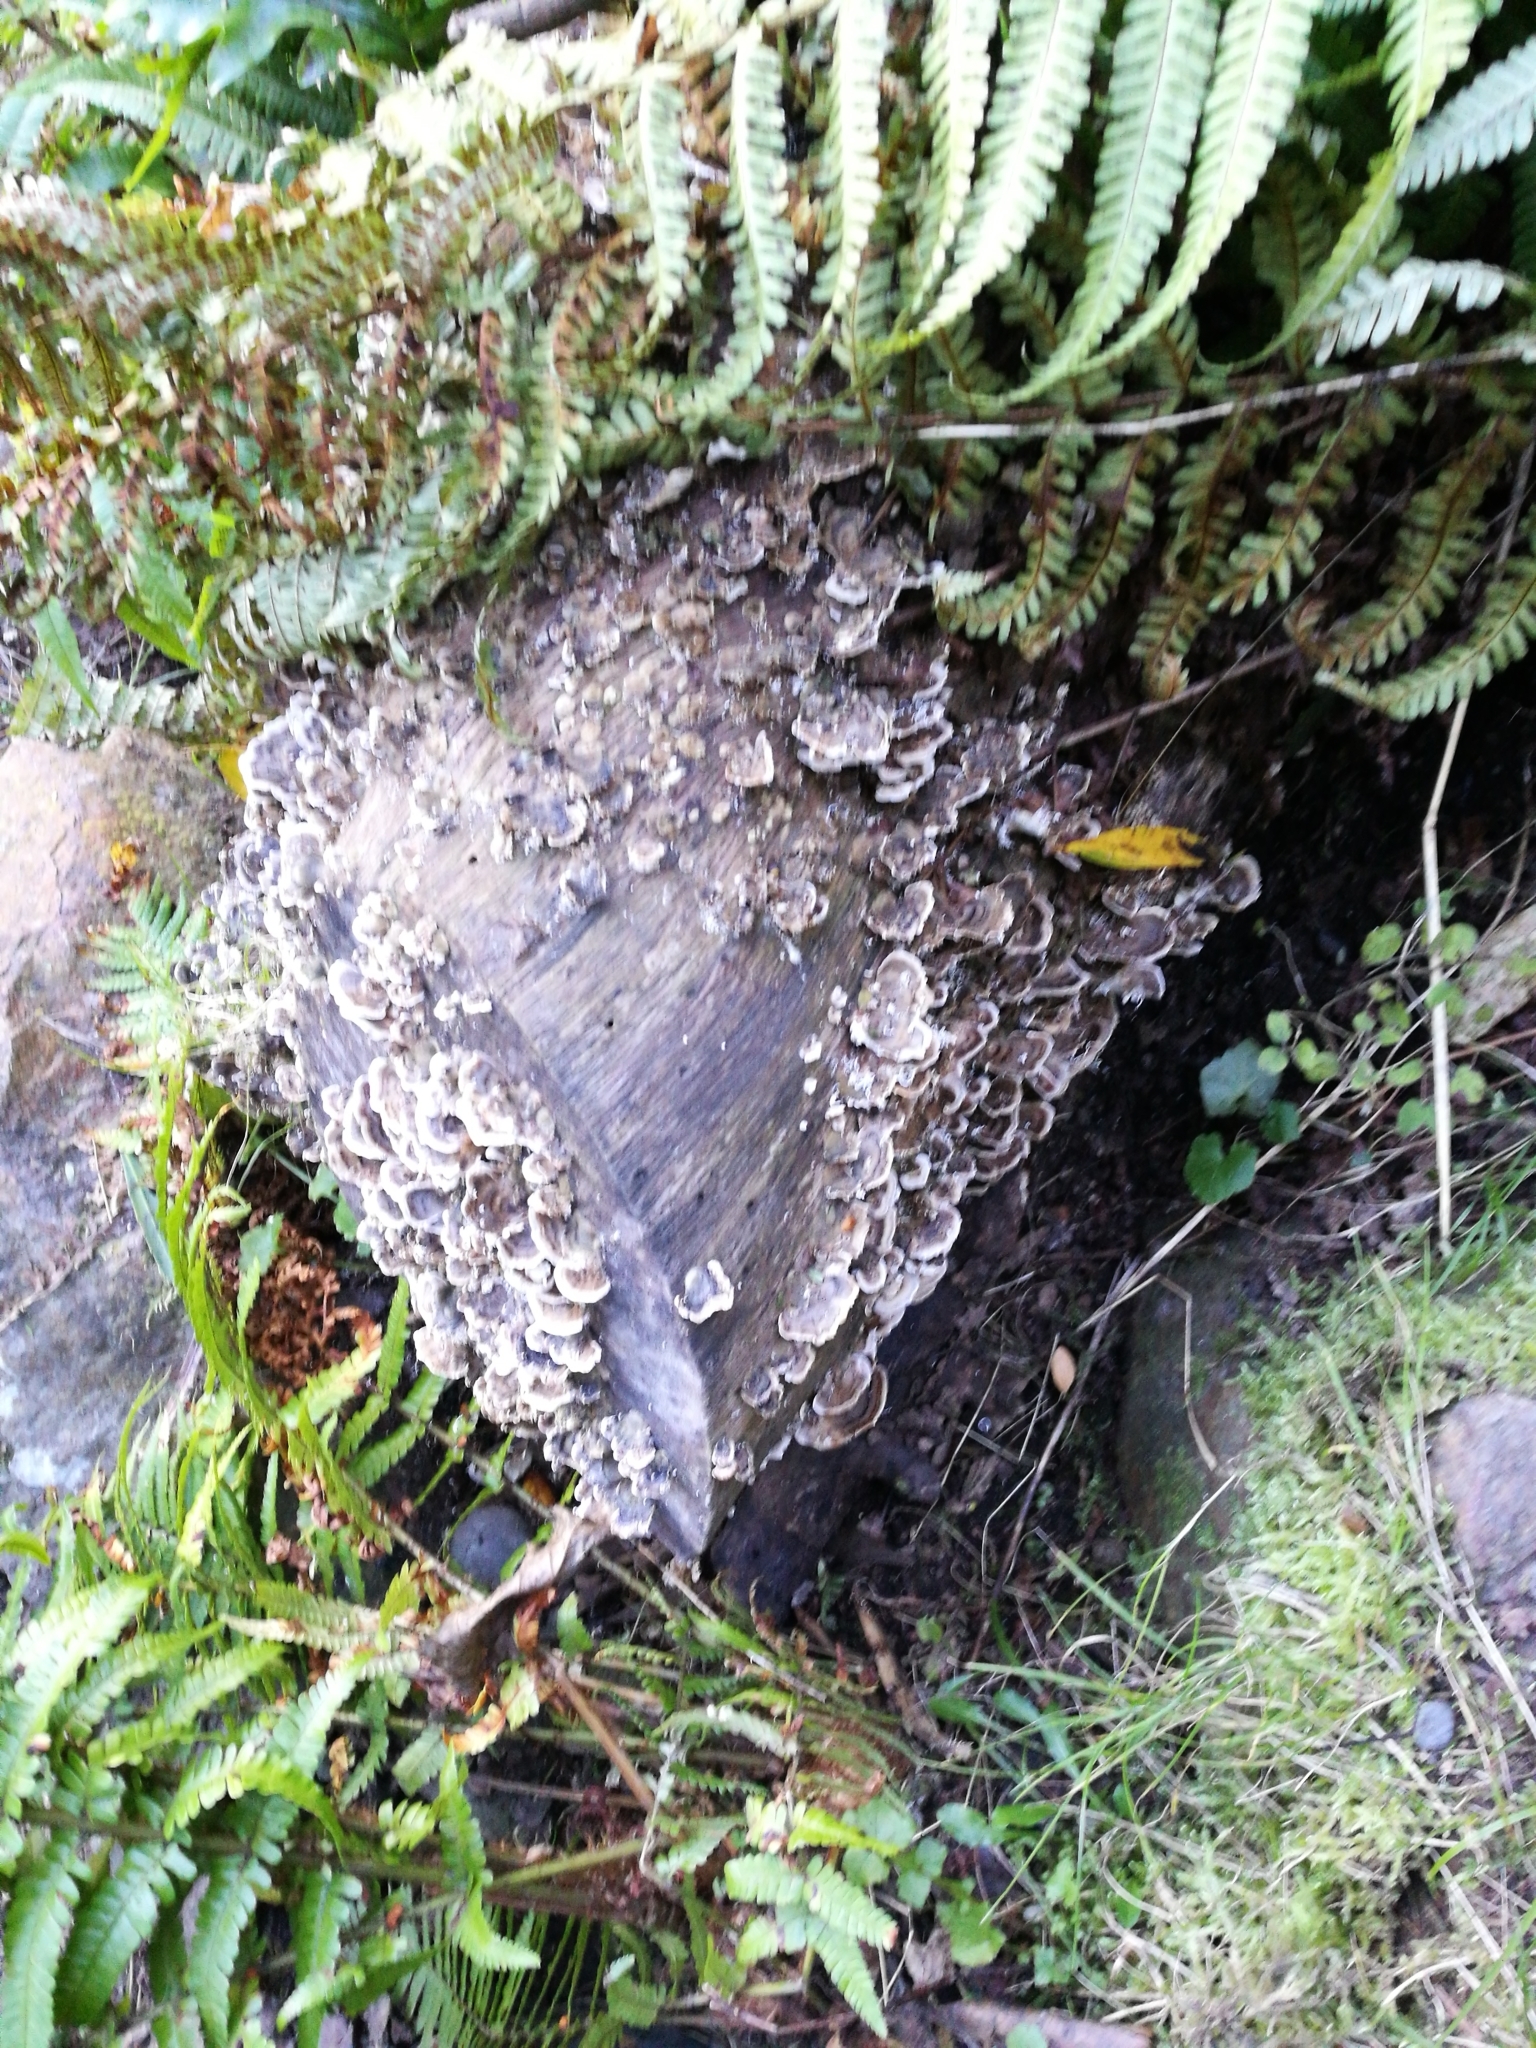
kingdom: Fungi
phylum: Basidiomycota
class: Agaricomycetes
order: Polyporales
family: Polyporaceae
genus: Trametes
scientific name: Trametes versicolor
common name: Turkeytail
